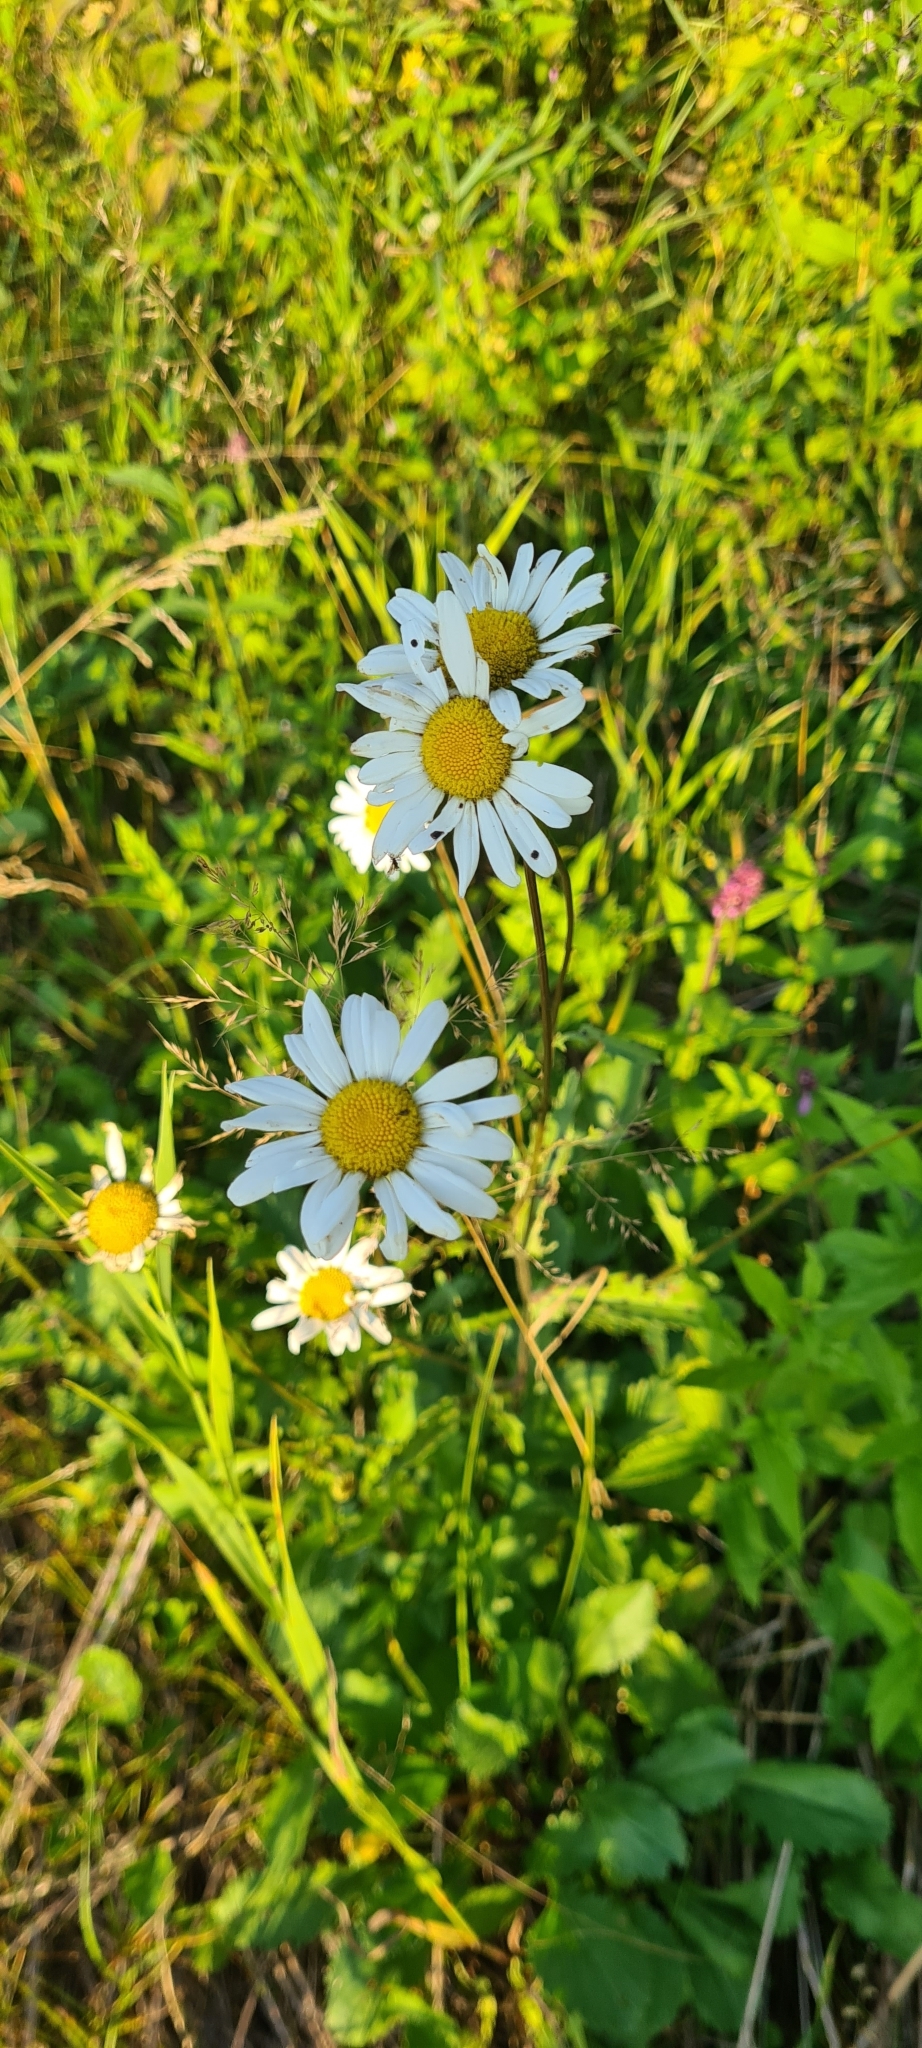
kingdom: Plantae
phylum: Tracheophyta
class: Magnoliopsida
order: Asterales
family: Asteraceae
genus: Leucanthemum
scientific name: Leucanthemum vulgare
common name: Oxeye daisy
